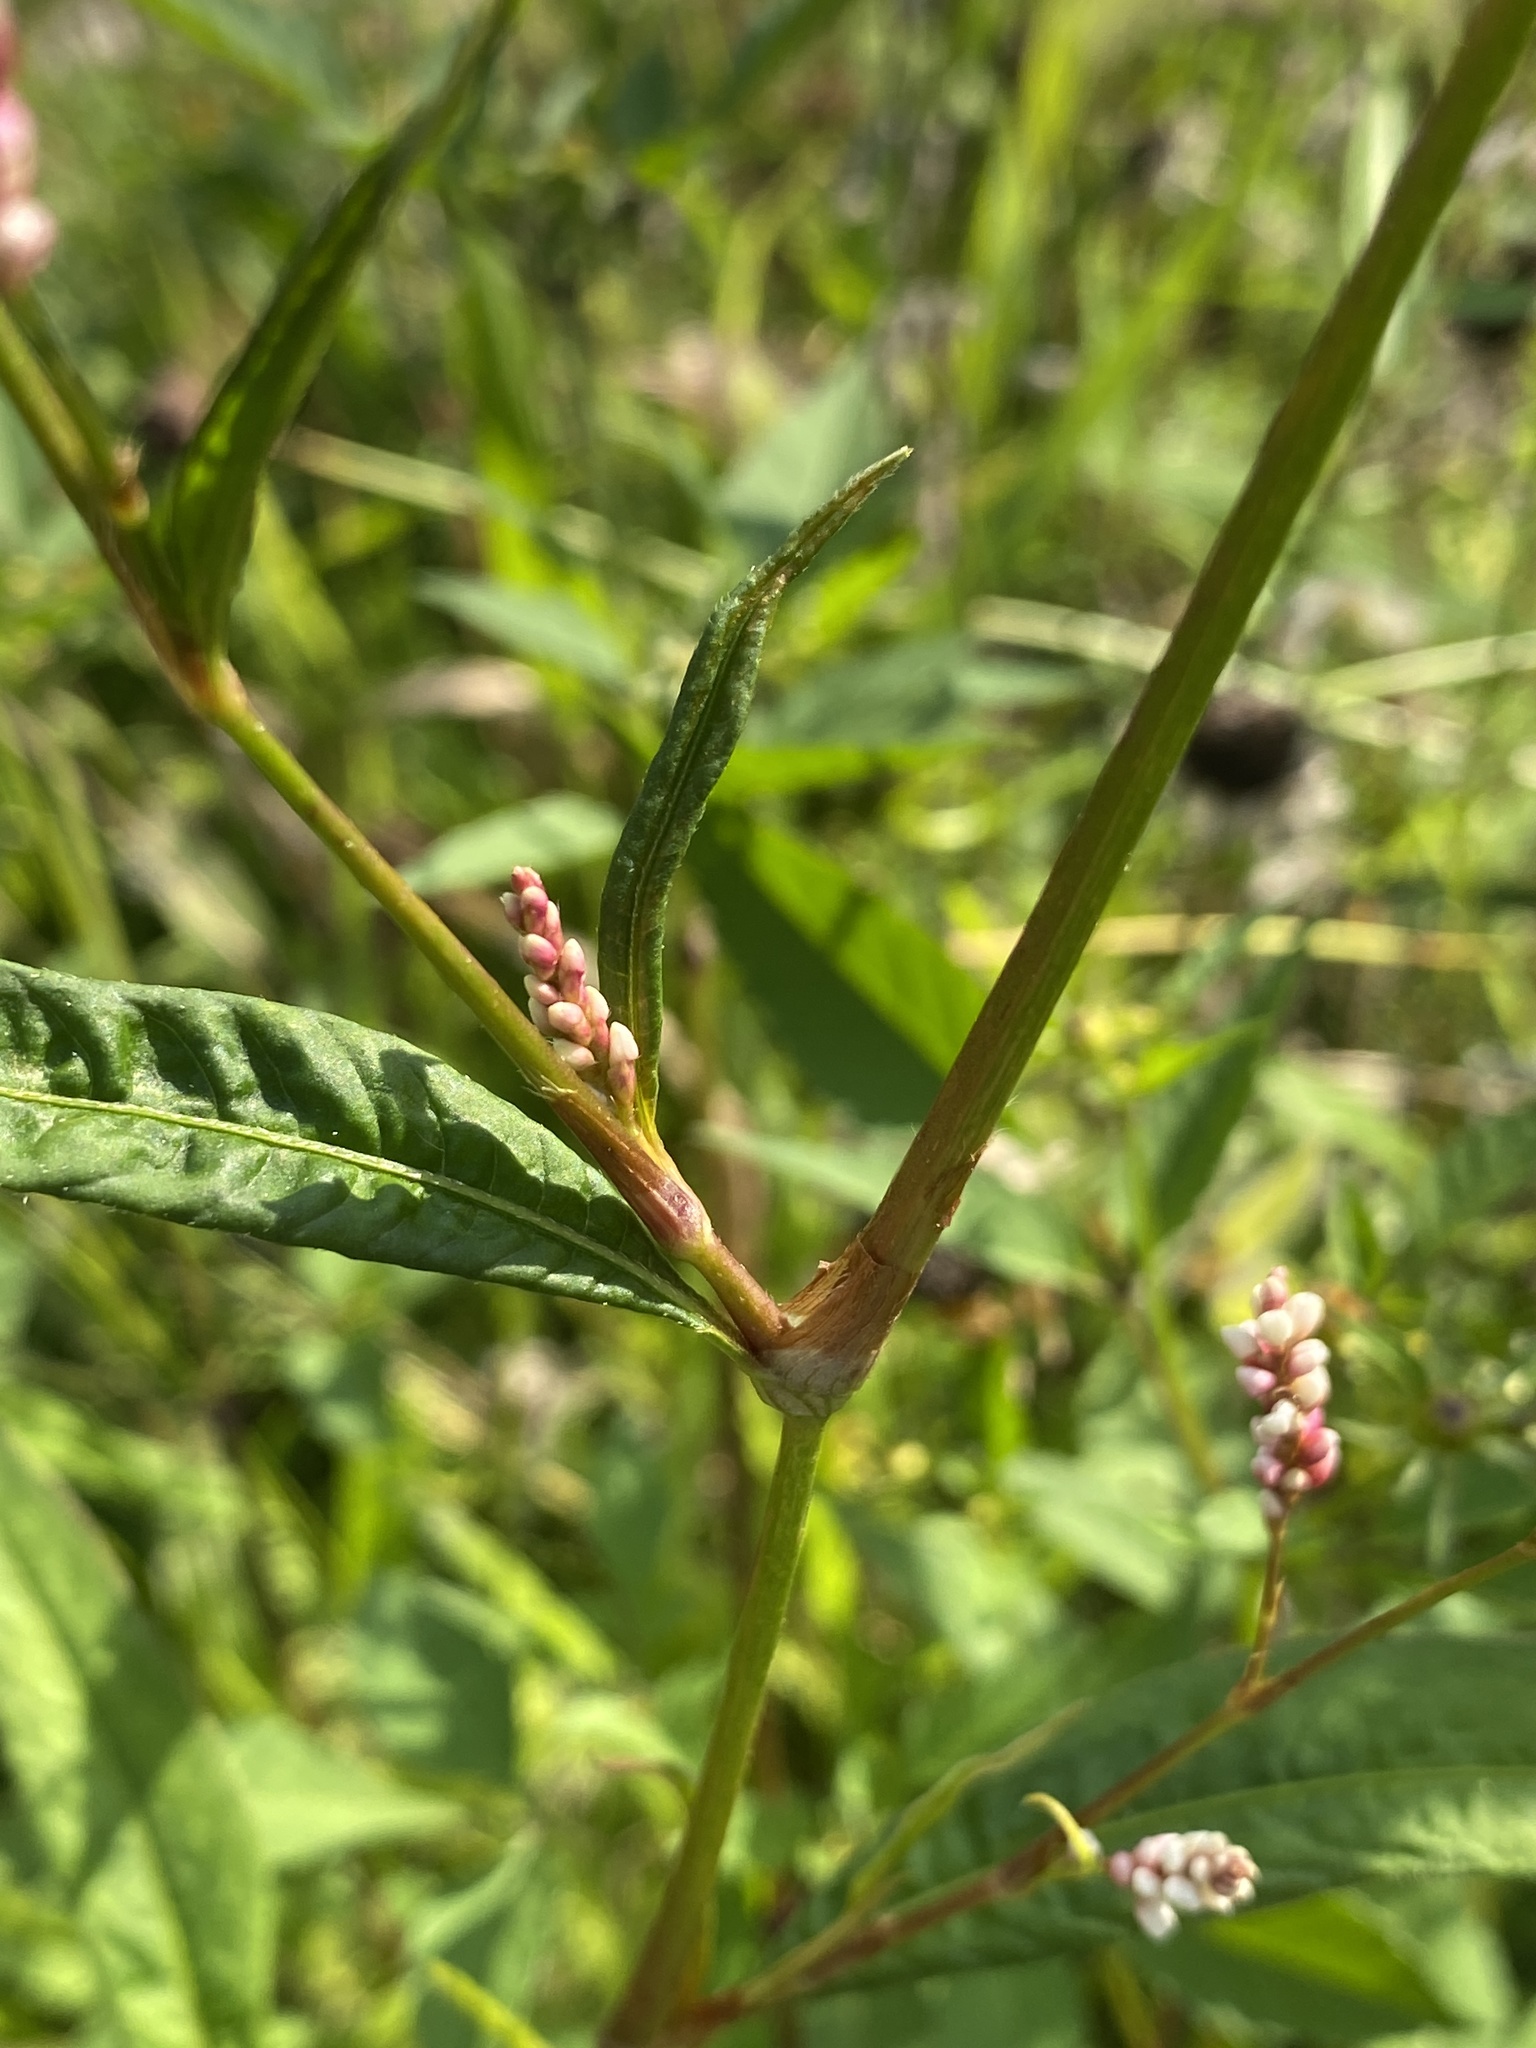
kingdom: Plantae
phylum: Tracheophyta
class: Magnoliopsida
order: Caryophyllales
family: Polygonaceae
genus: Persicaria
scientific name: Persicaria maculosa
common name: Redshank
